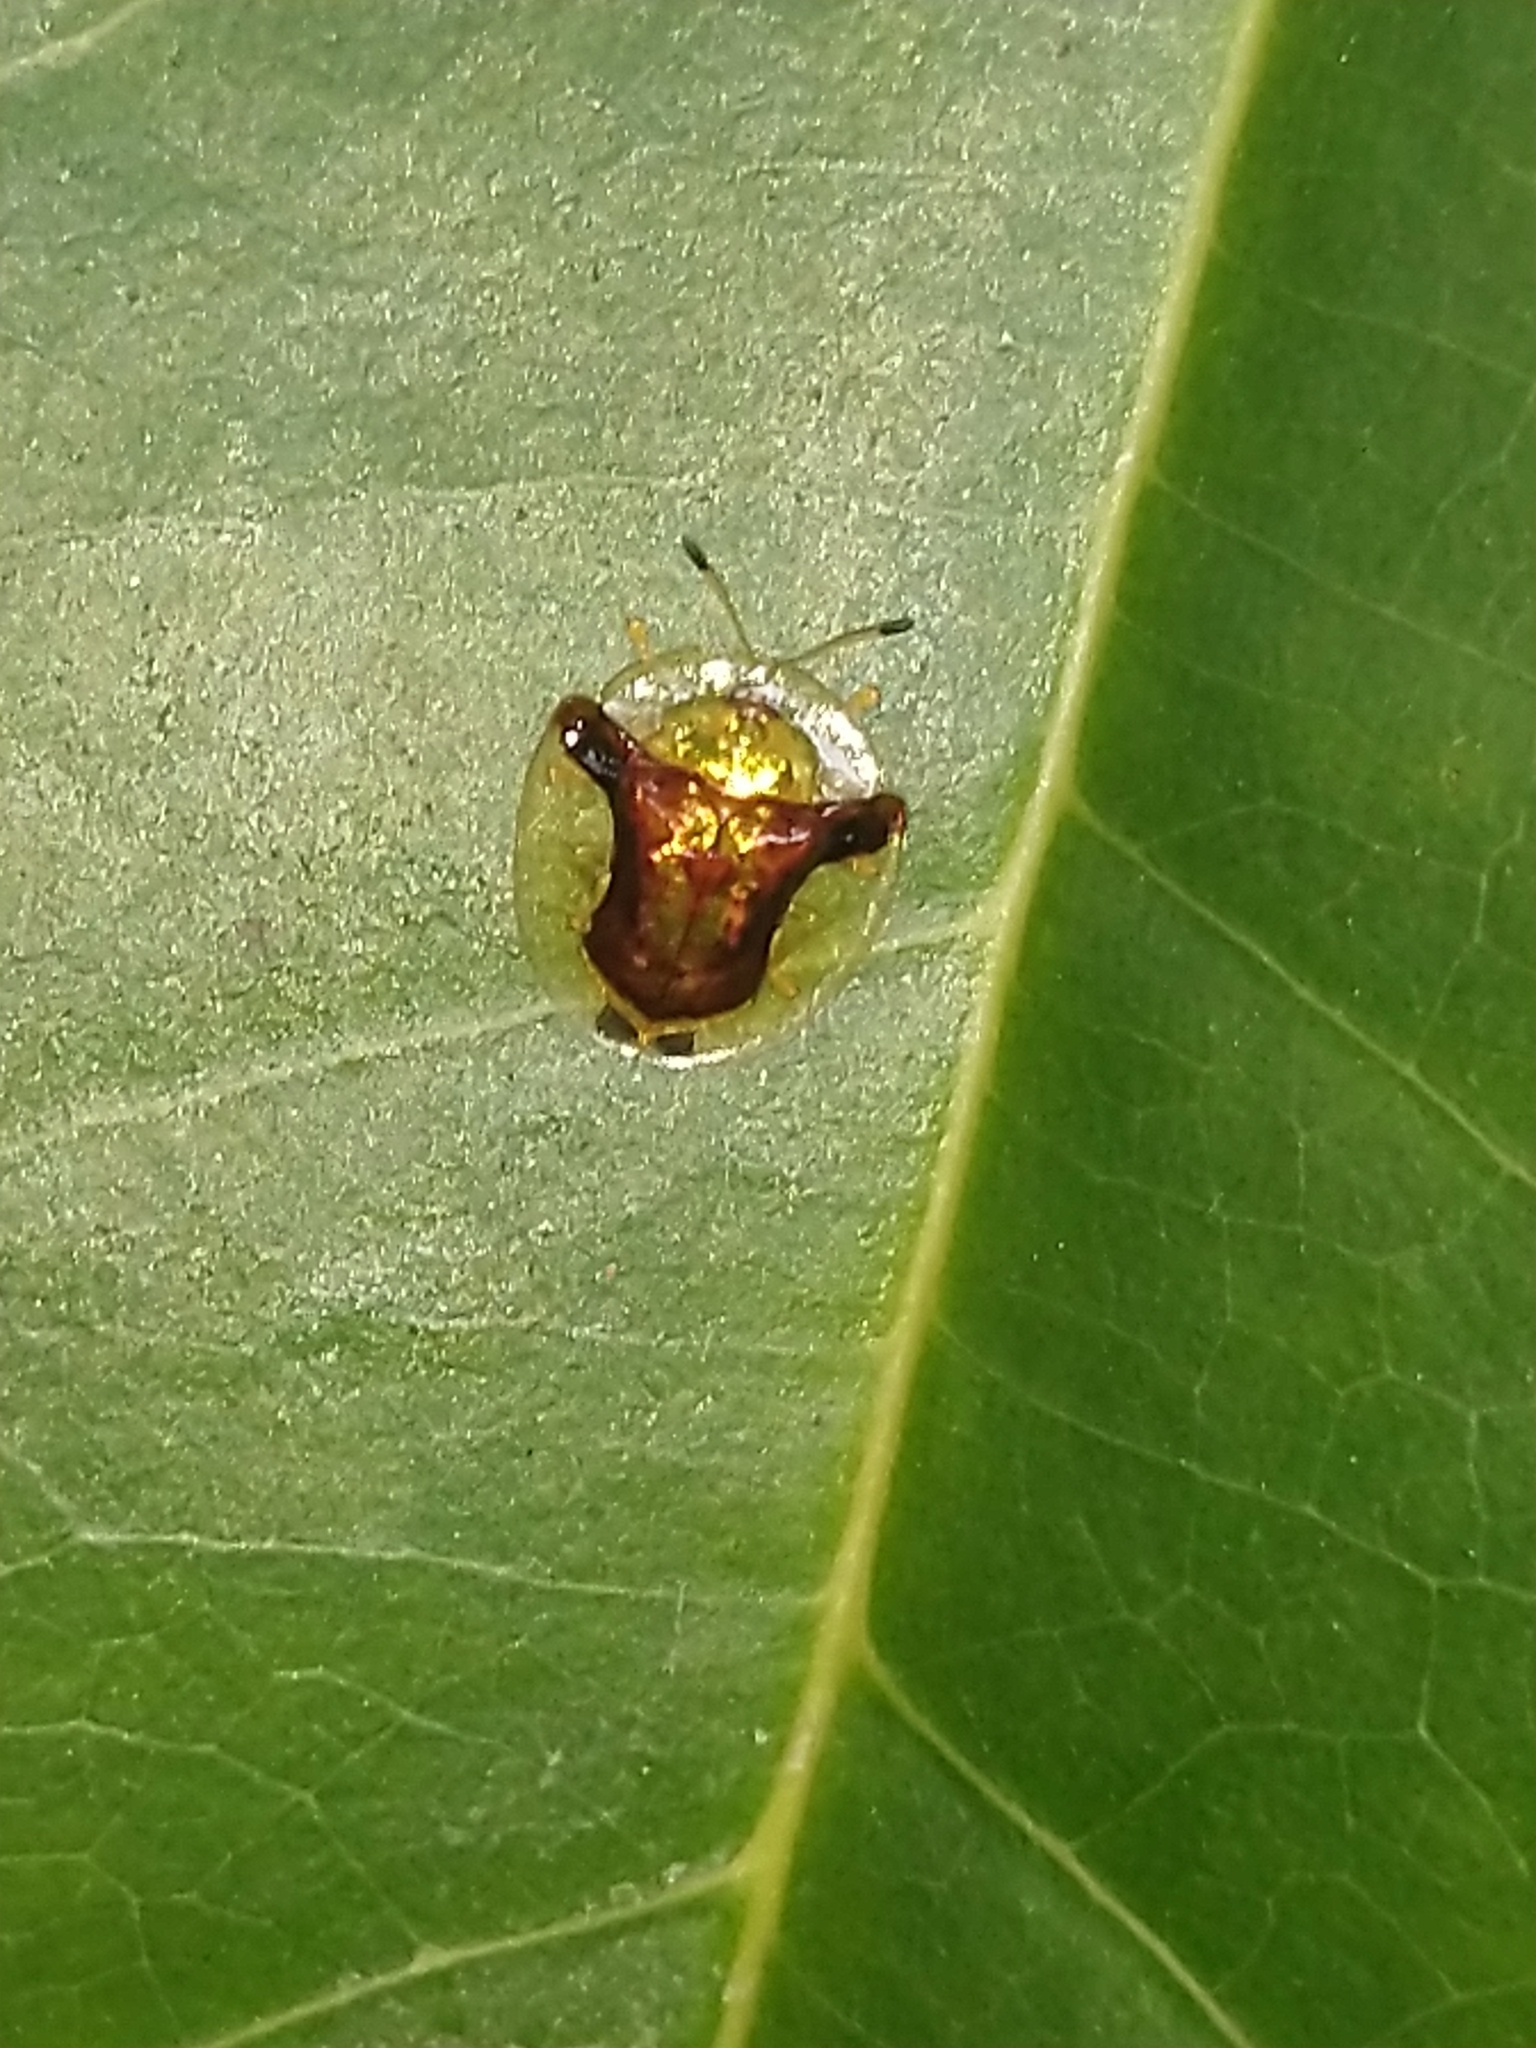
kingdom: Animalia
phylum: Arthropoda
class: Insecta
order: Coleoptera
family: Chrysomelidae
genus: Aspidimorpha
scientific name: Aspidimorpha furcata
